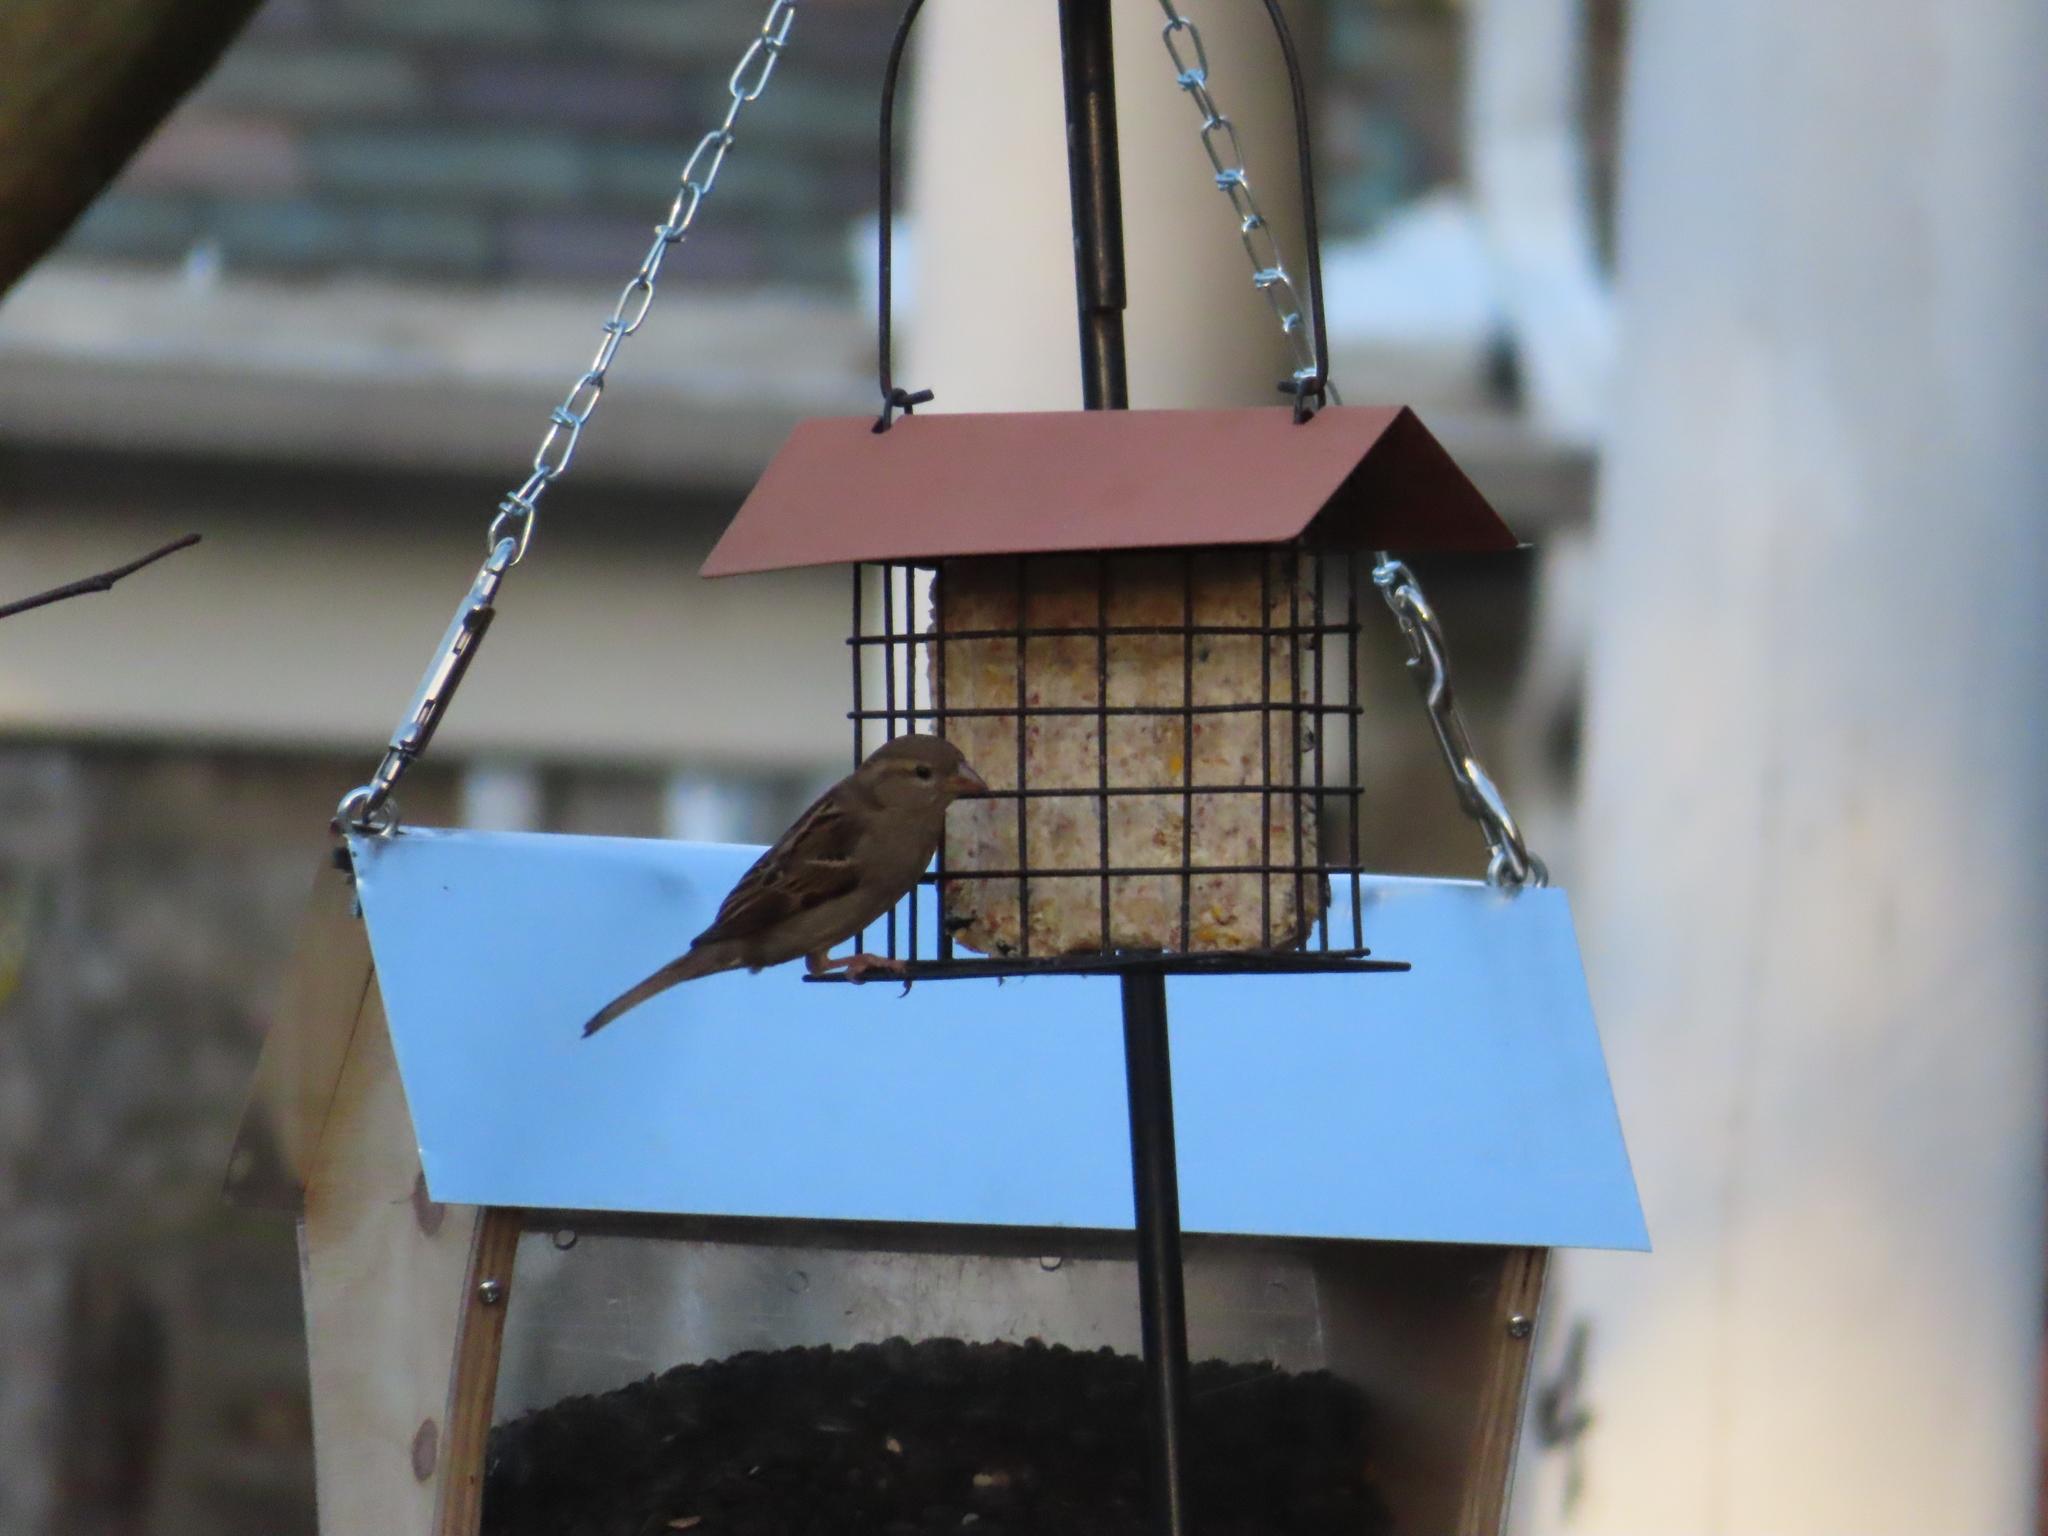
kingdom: Animalia
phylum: Chordata
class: Aves
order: Passeriformes
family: Passeridae
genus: Passer
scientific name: Passer domesticus
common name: House sparrow
